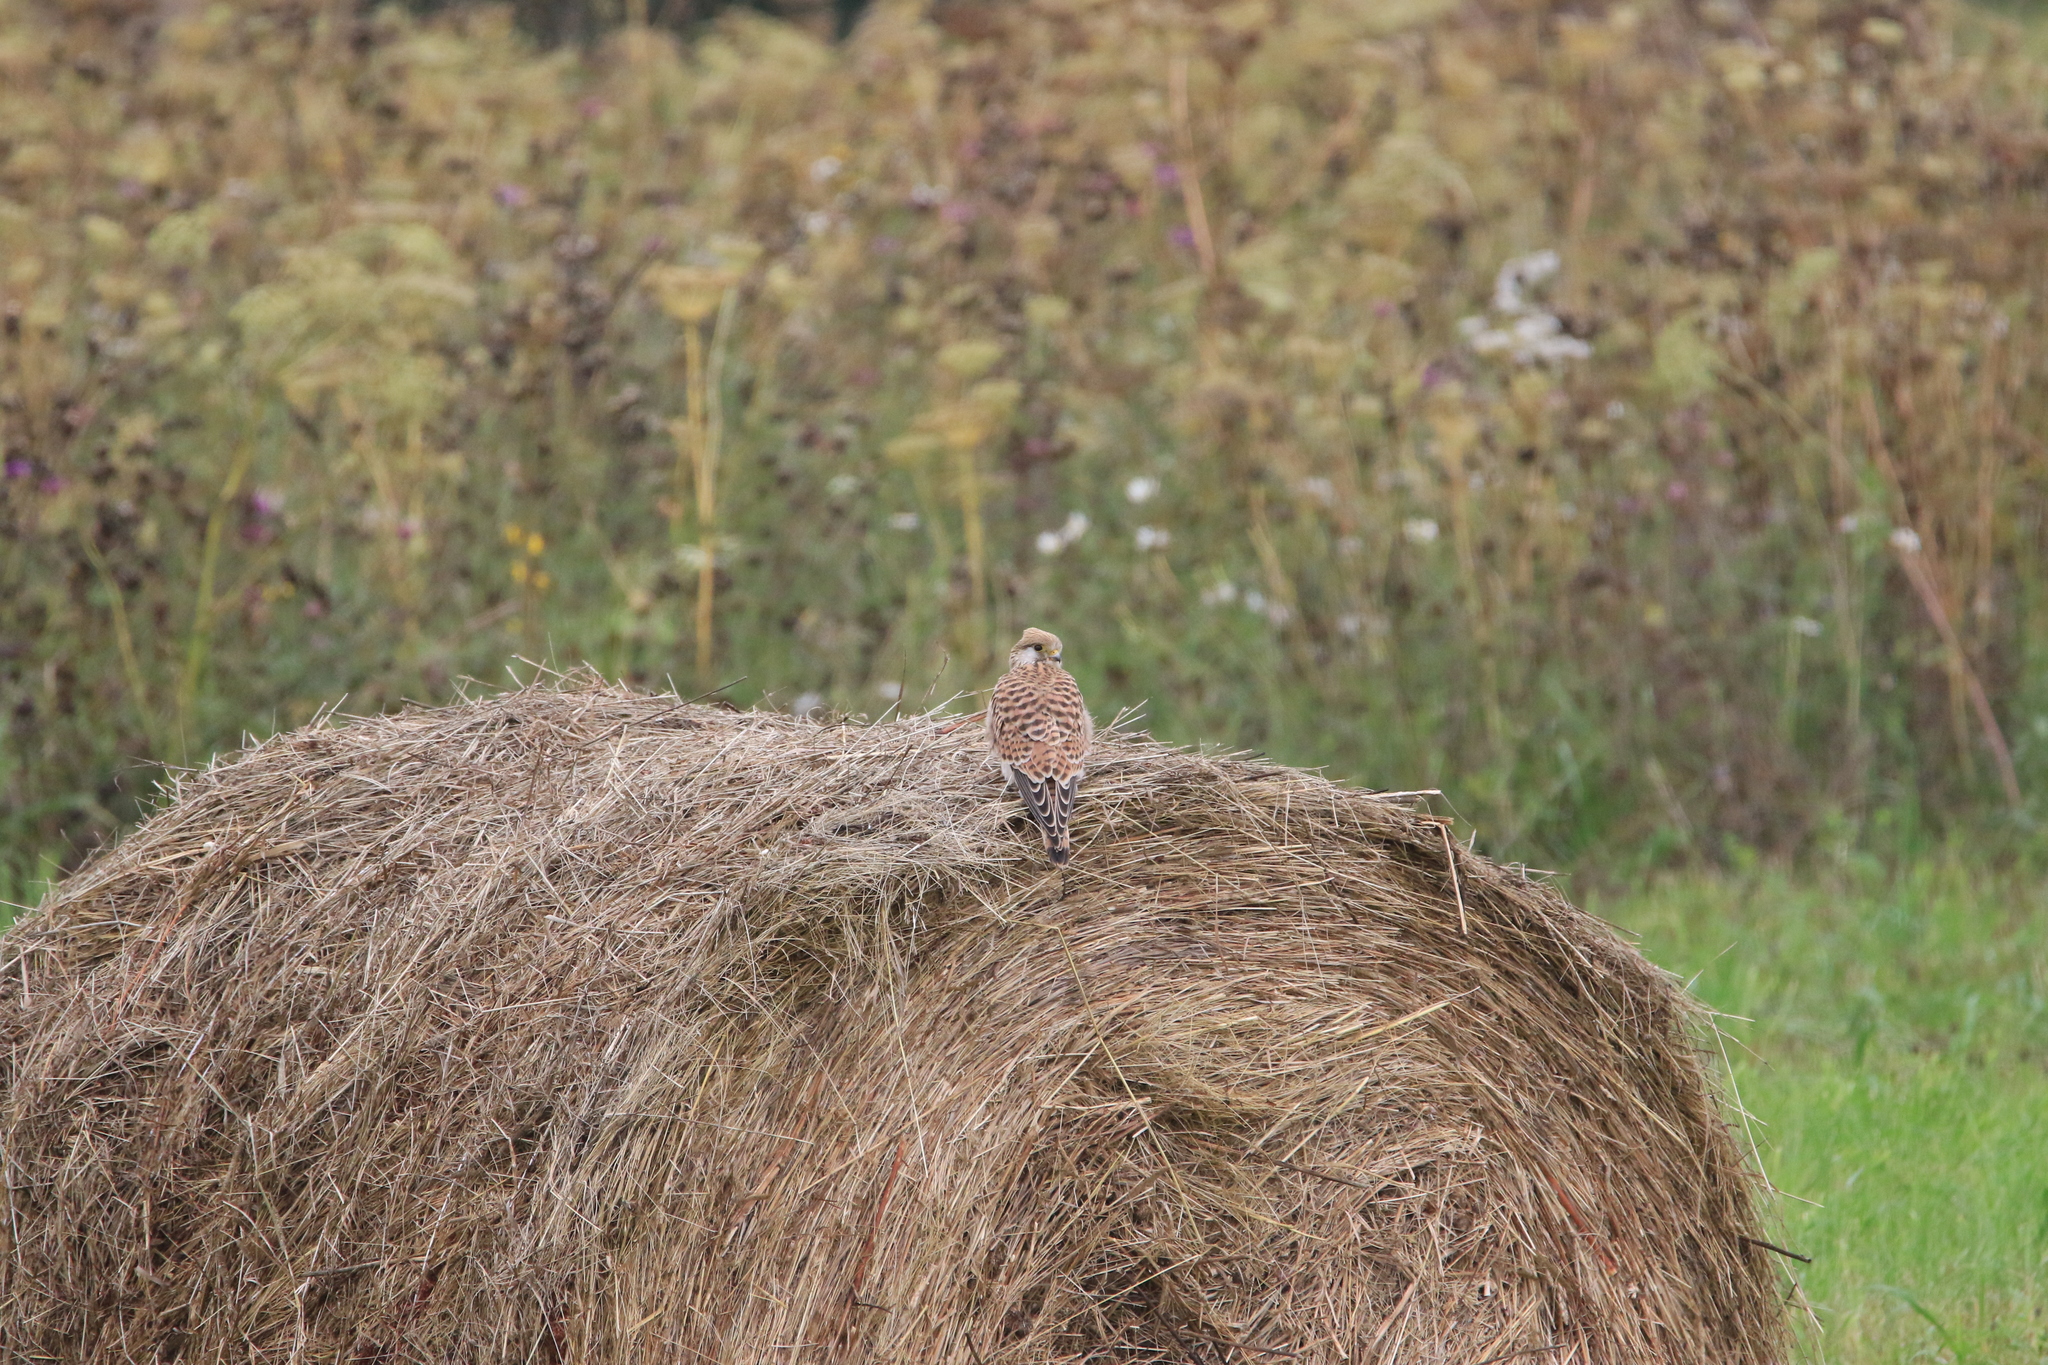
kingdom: Animalia
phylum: Chordata
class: Aves
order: Falconiformes
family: Falconidae
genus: Falco
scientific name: Falco tinnunculus
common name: Common kestrel
